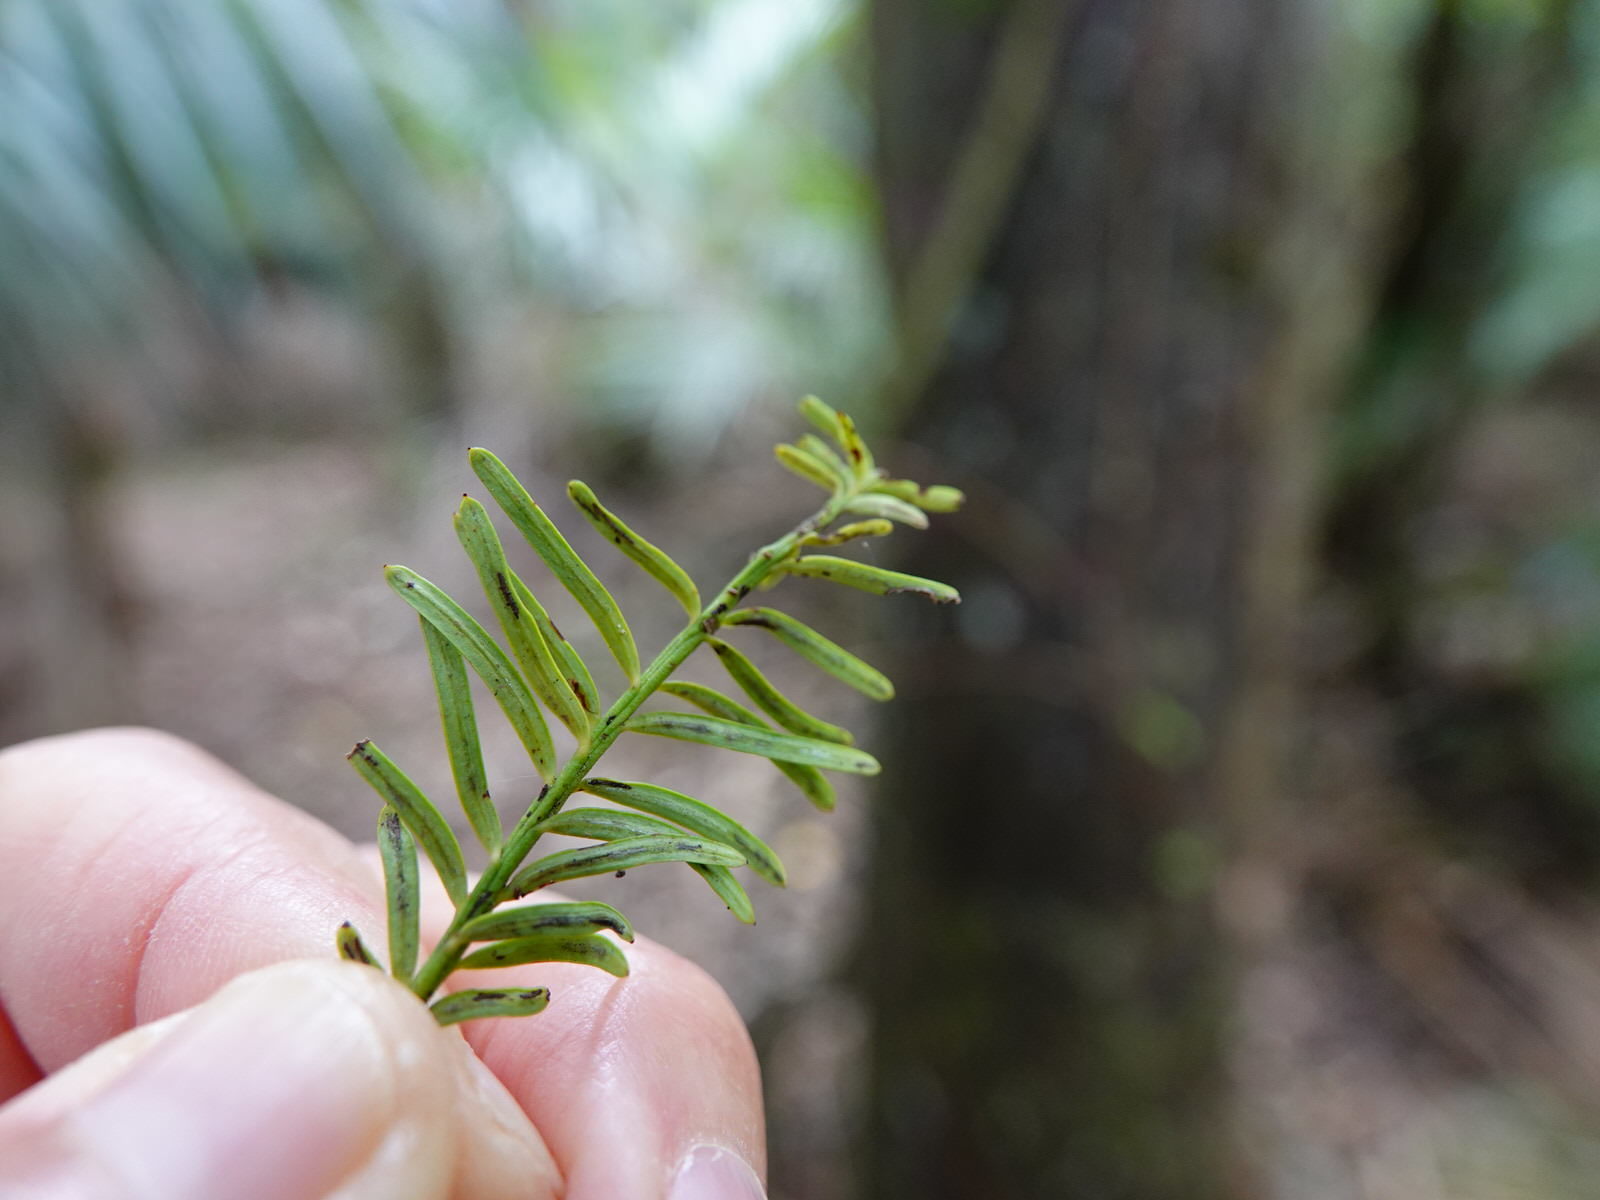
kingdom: Plantae
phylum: Tracheophyta
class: Pinopsida
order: Pinales
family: Podocarpaceae
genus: Prumnopitys
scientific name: Prumnopitys taxifolia
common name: Matai
